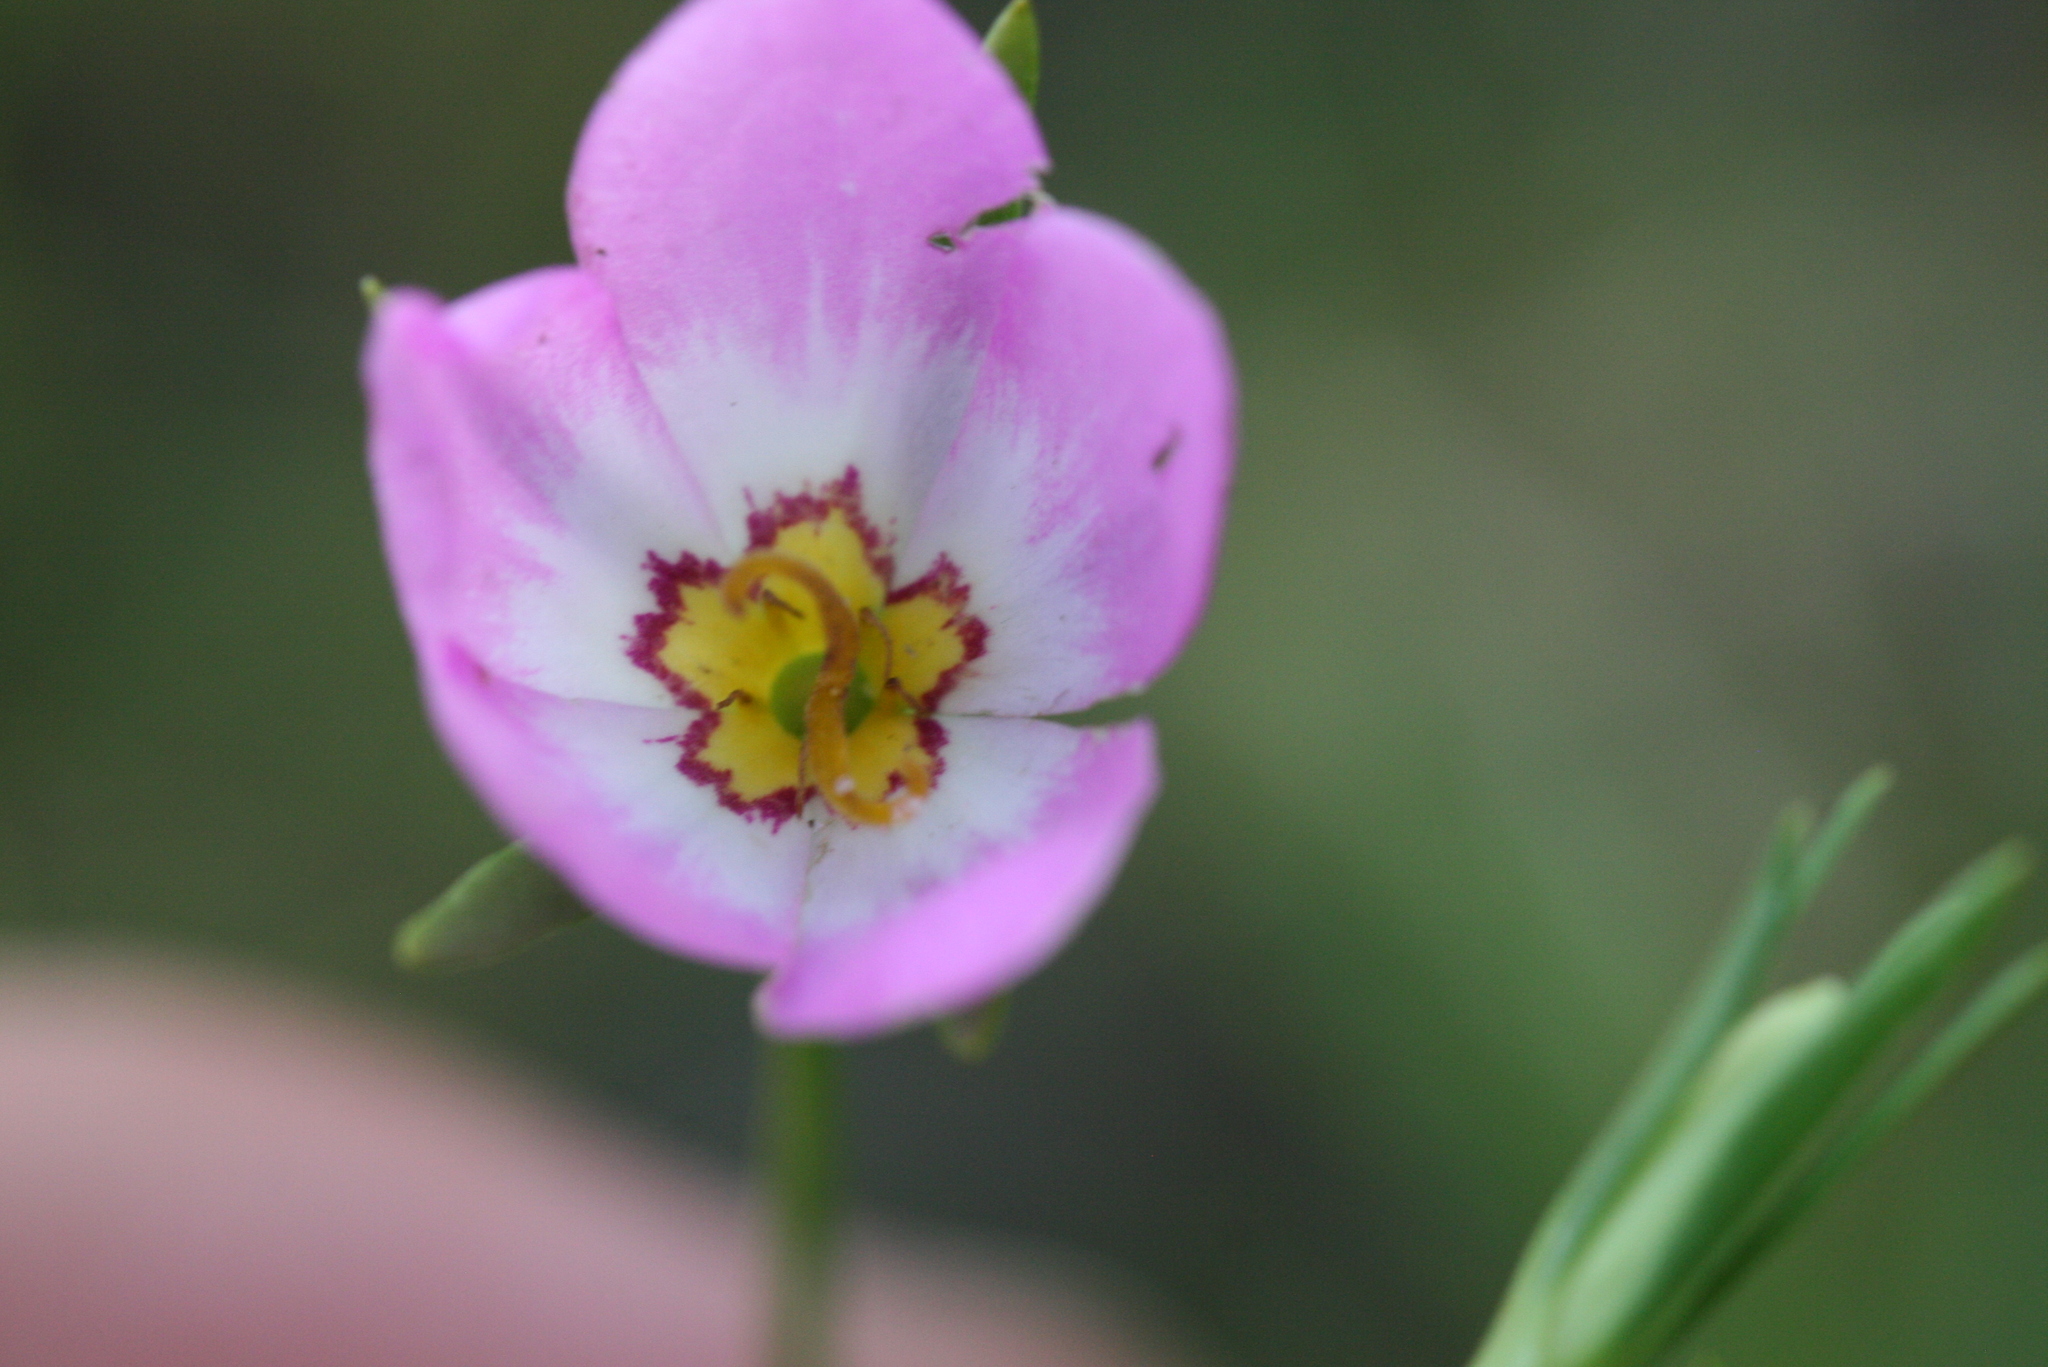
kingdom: Plantae
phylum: Tracheophyta
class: Magnoliopsida
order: Gentianales
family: Gentianaceae
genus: Sabatia
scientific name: Sabatia stellaris
